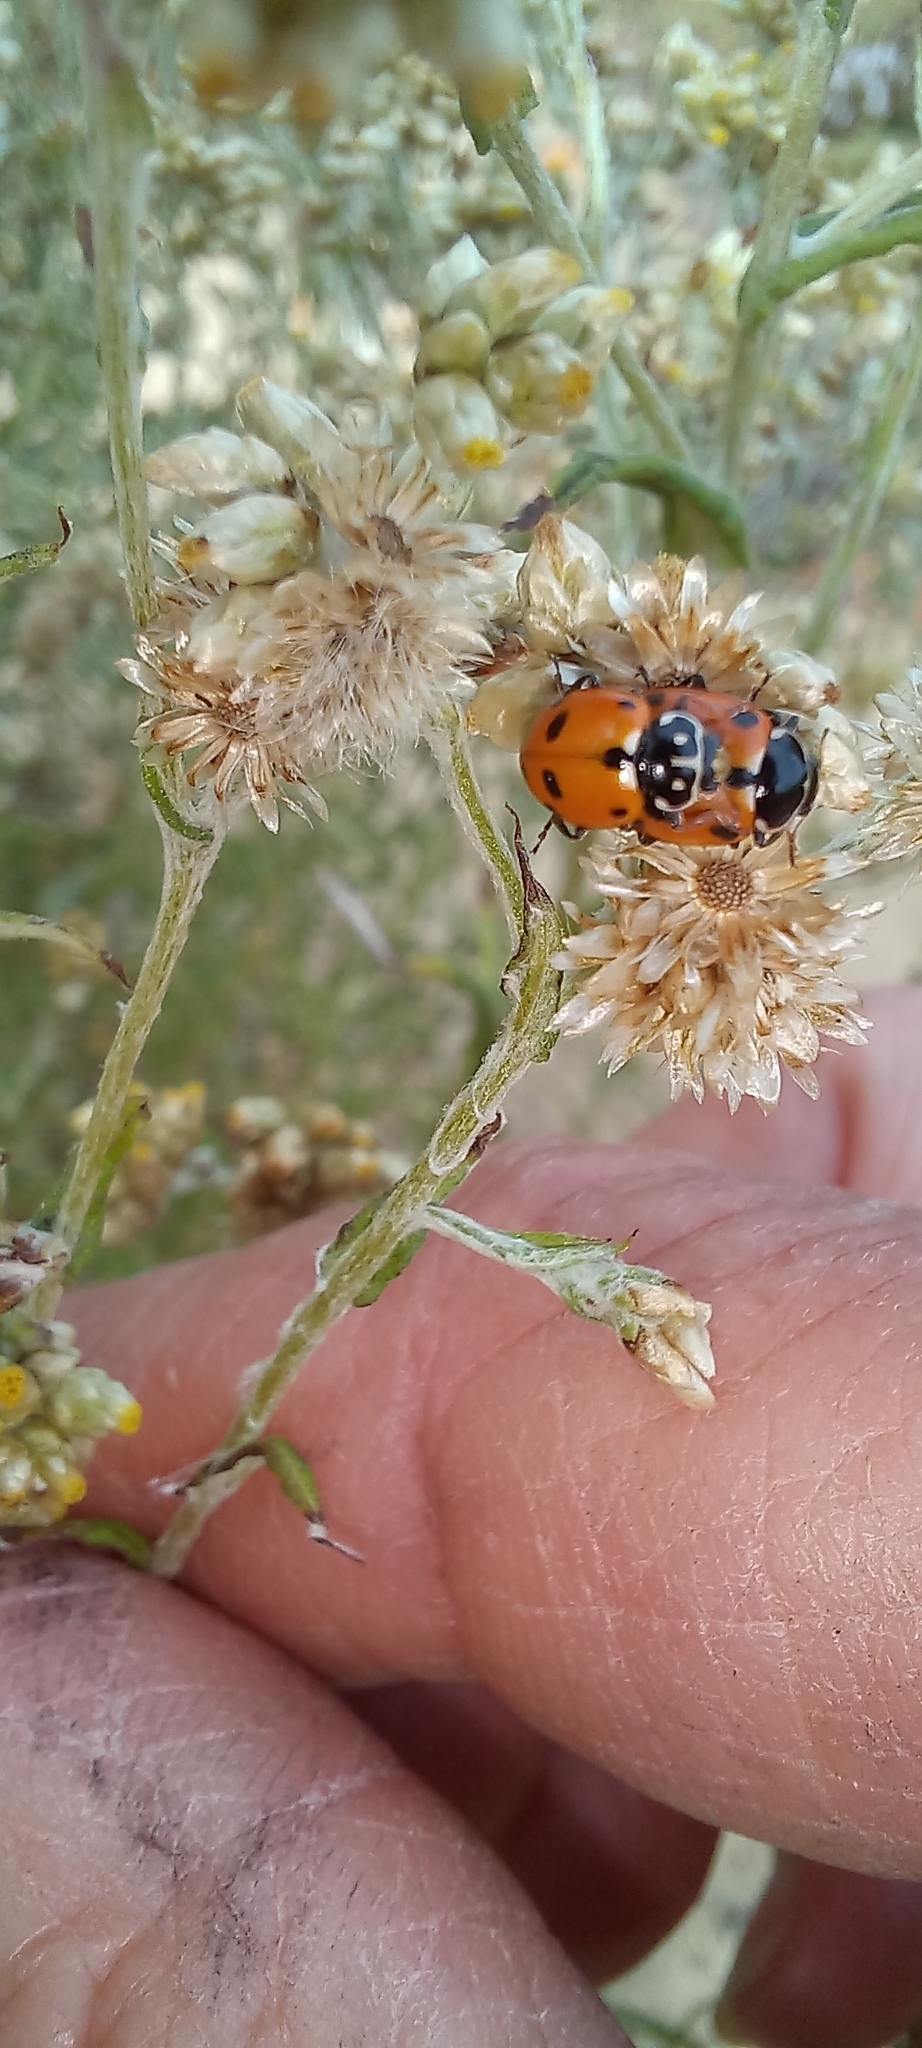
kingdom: Animalia
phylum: Arthropoda
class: Insecta
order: Coleoptera
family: Coccinellidae
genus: Hippodamia
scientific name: Hippodamia variegata
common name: Ladybird beetle
